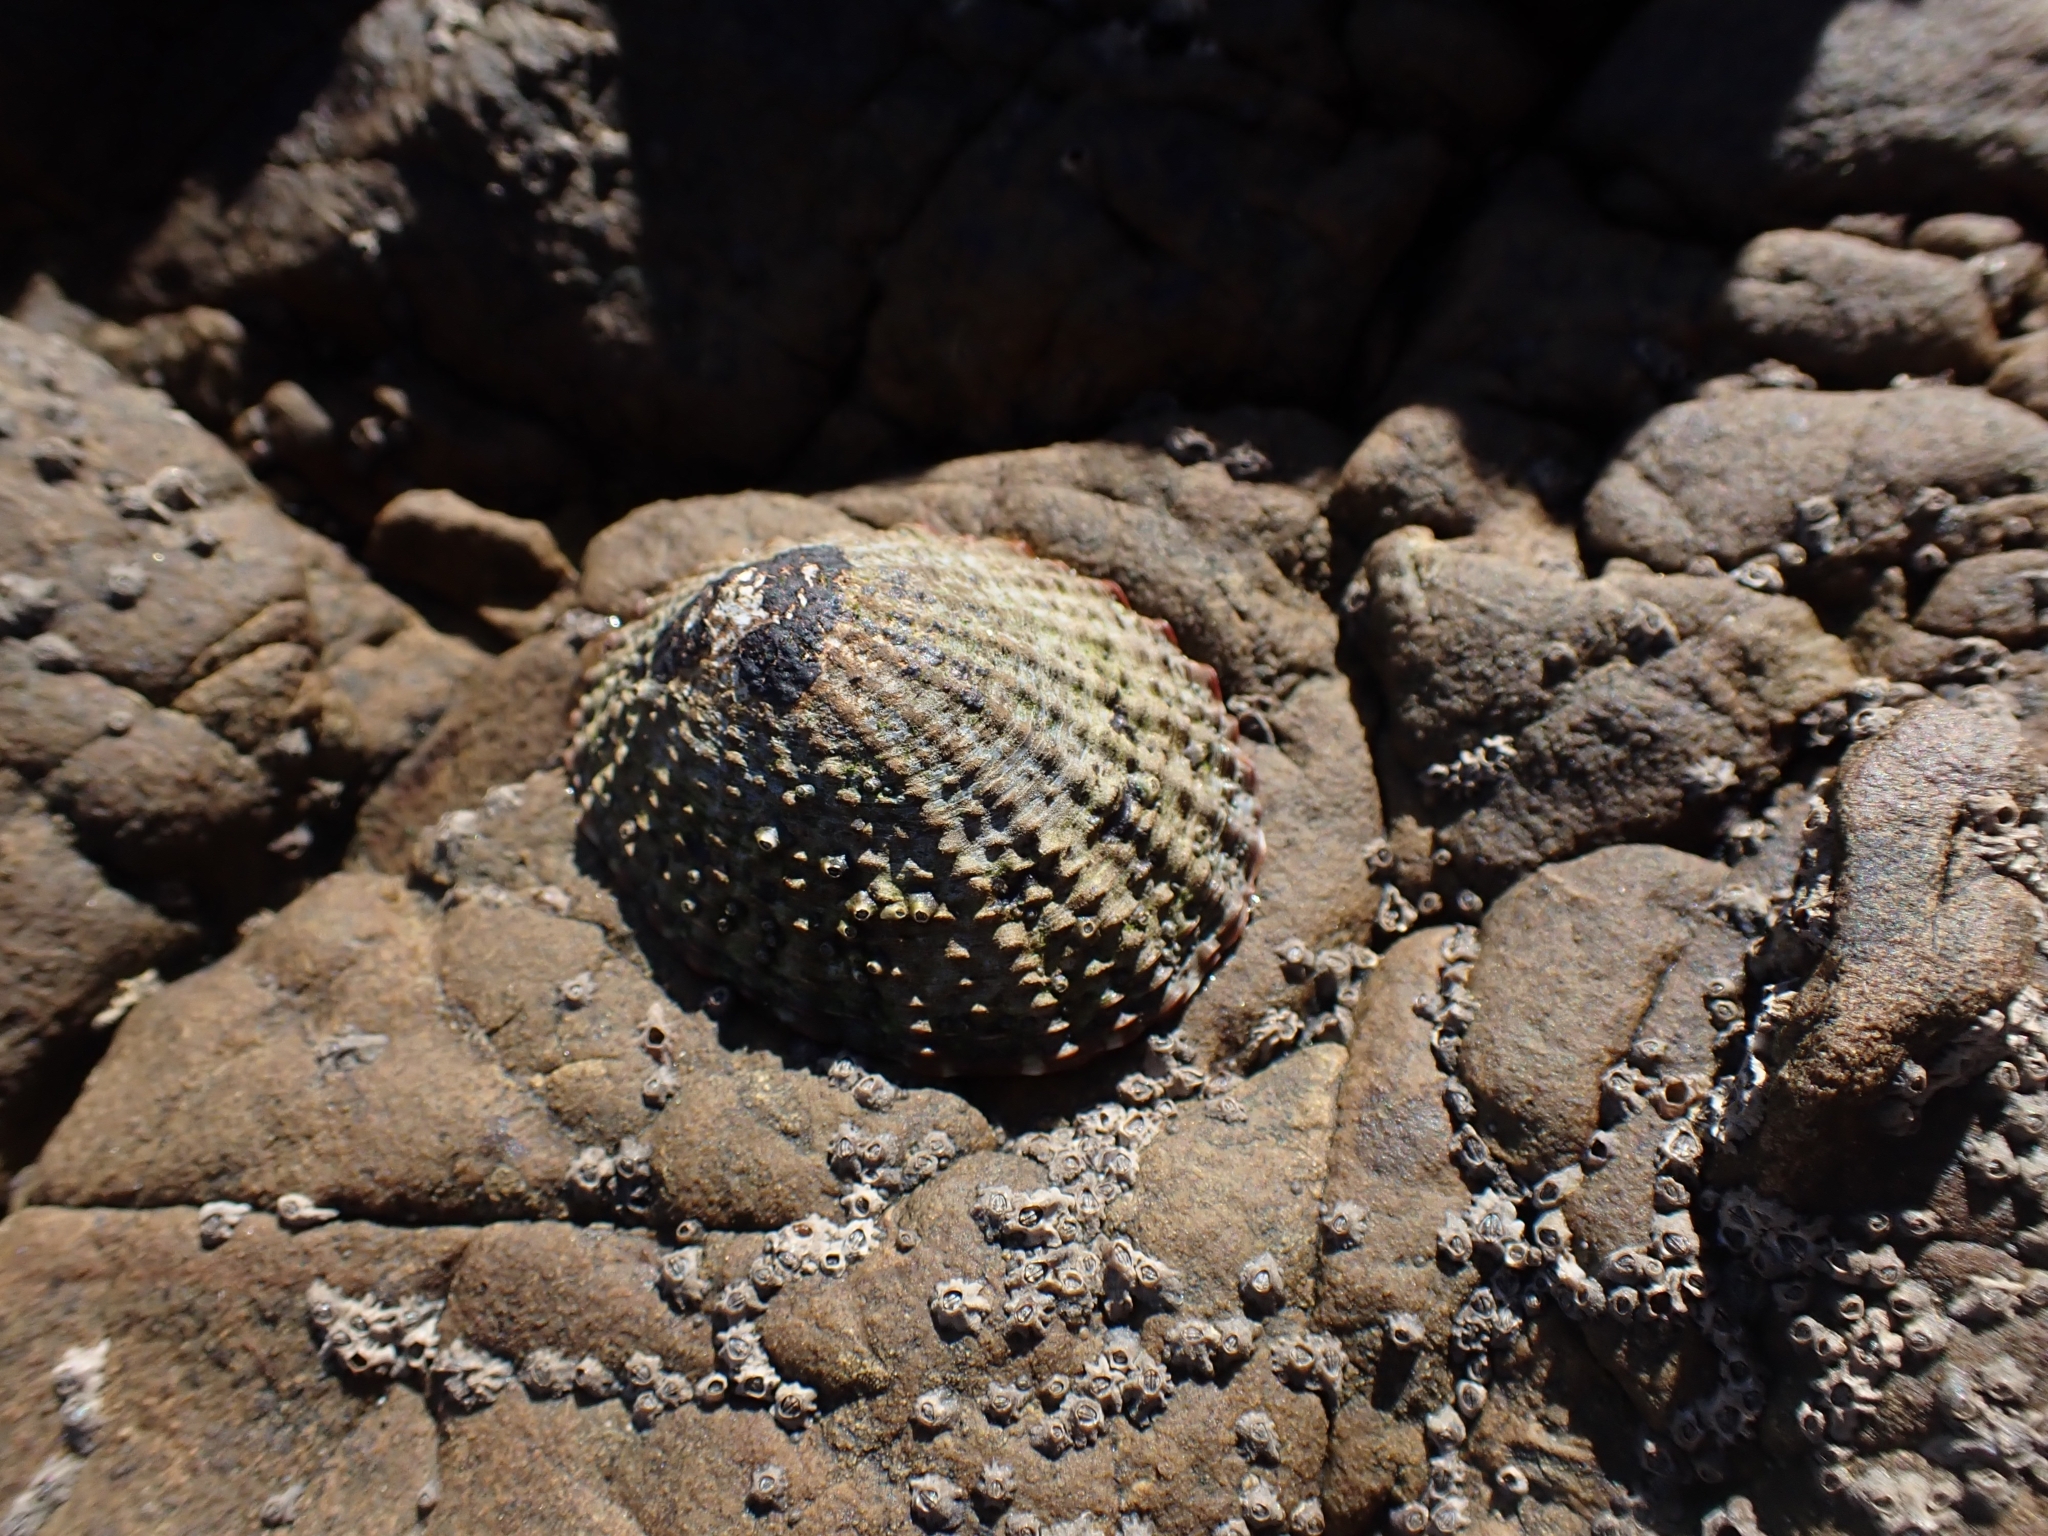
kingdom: Animalia
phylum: Mollusca
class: Gastropoda
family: Nacellidae
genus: Cellana
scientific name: Cellana denticulata
